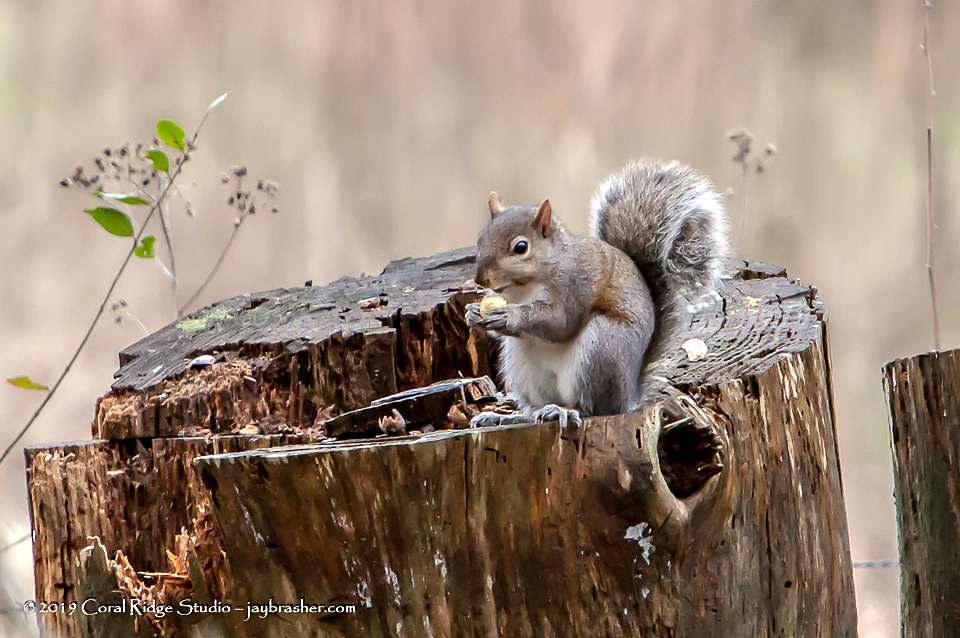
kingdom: Animalia
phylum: Chordata
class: Mammalia
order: Rodentia
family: Sciuridae
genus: Sciurus
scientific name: Sciurus carolinensis
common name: Eastern gray squirrel
